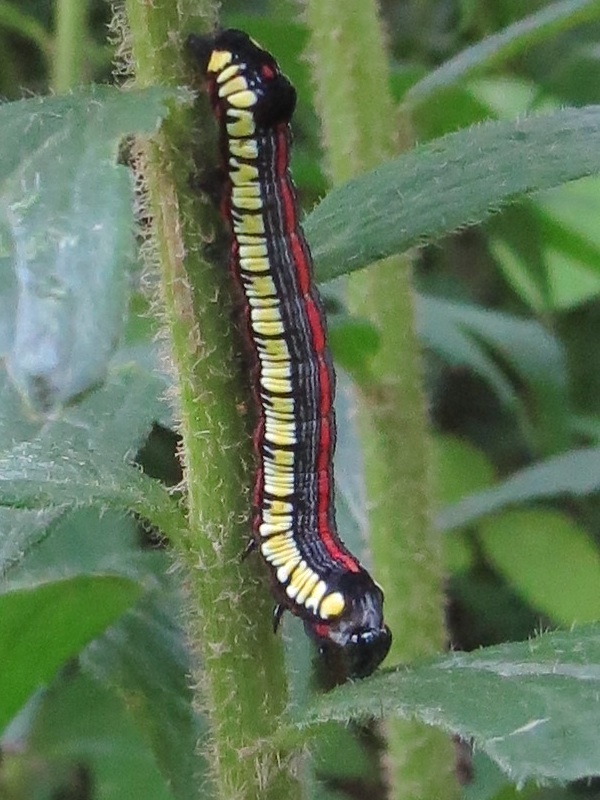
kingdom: Animalia
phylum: Arthropoda
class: Insecta
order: Lepidoptera
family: Noctuidae
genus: Cucullia
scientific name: Cucullia convexipennis
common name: Brown-hooded owlet
